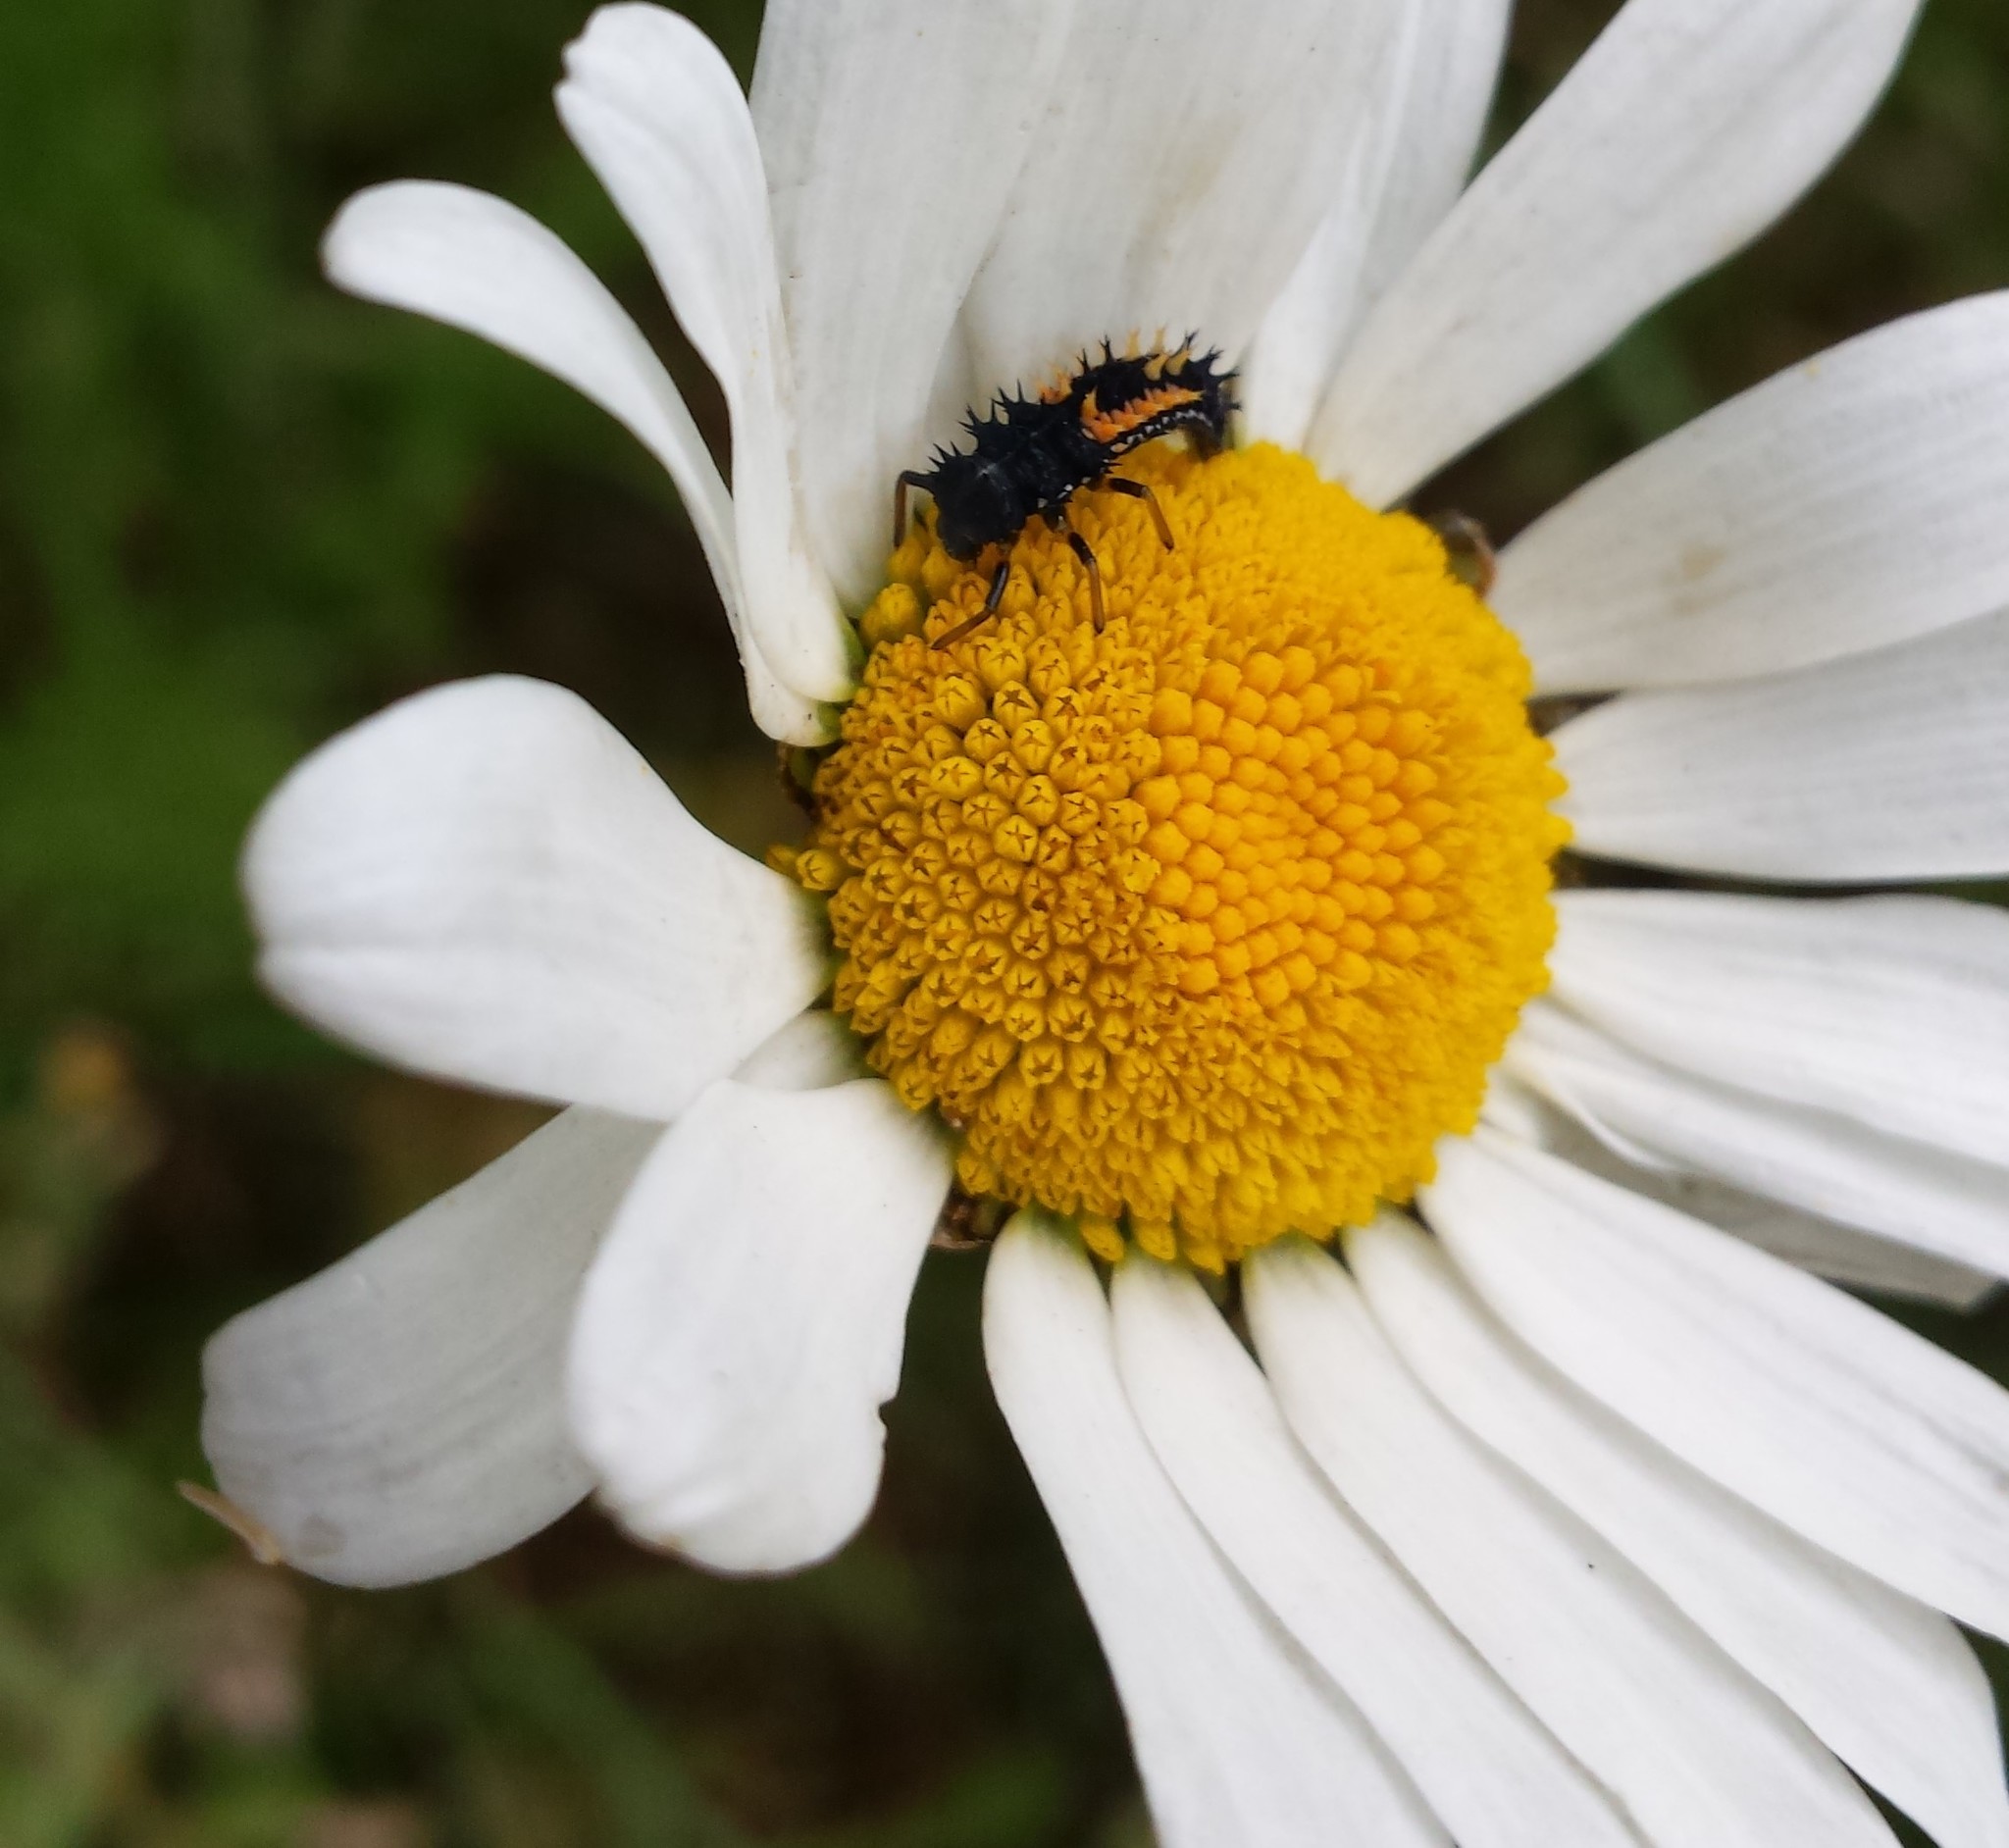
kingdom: Animalia
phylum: Arthropoda
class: Insecta
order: Coleoptera
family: Coccinellidae
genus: Harmonia
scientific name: Harmonia axyridis
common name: Harlequin ladybird
